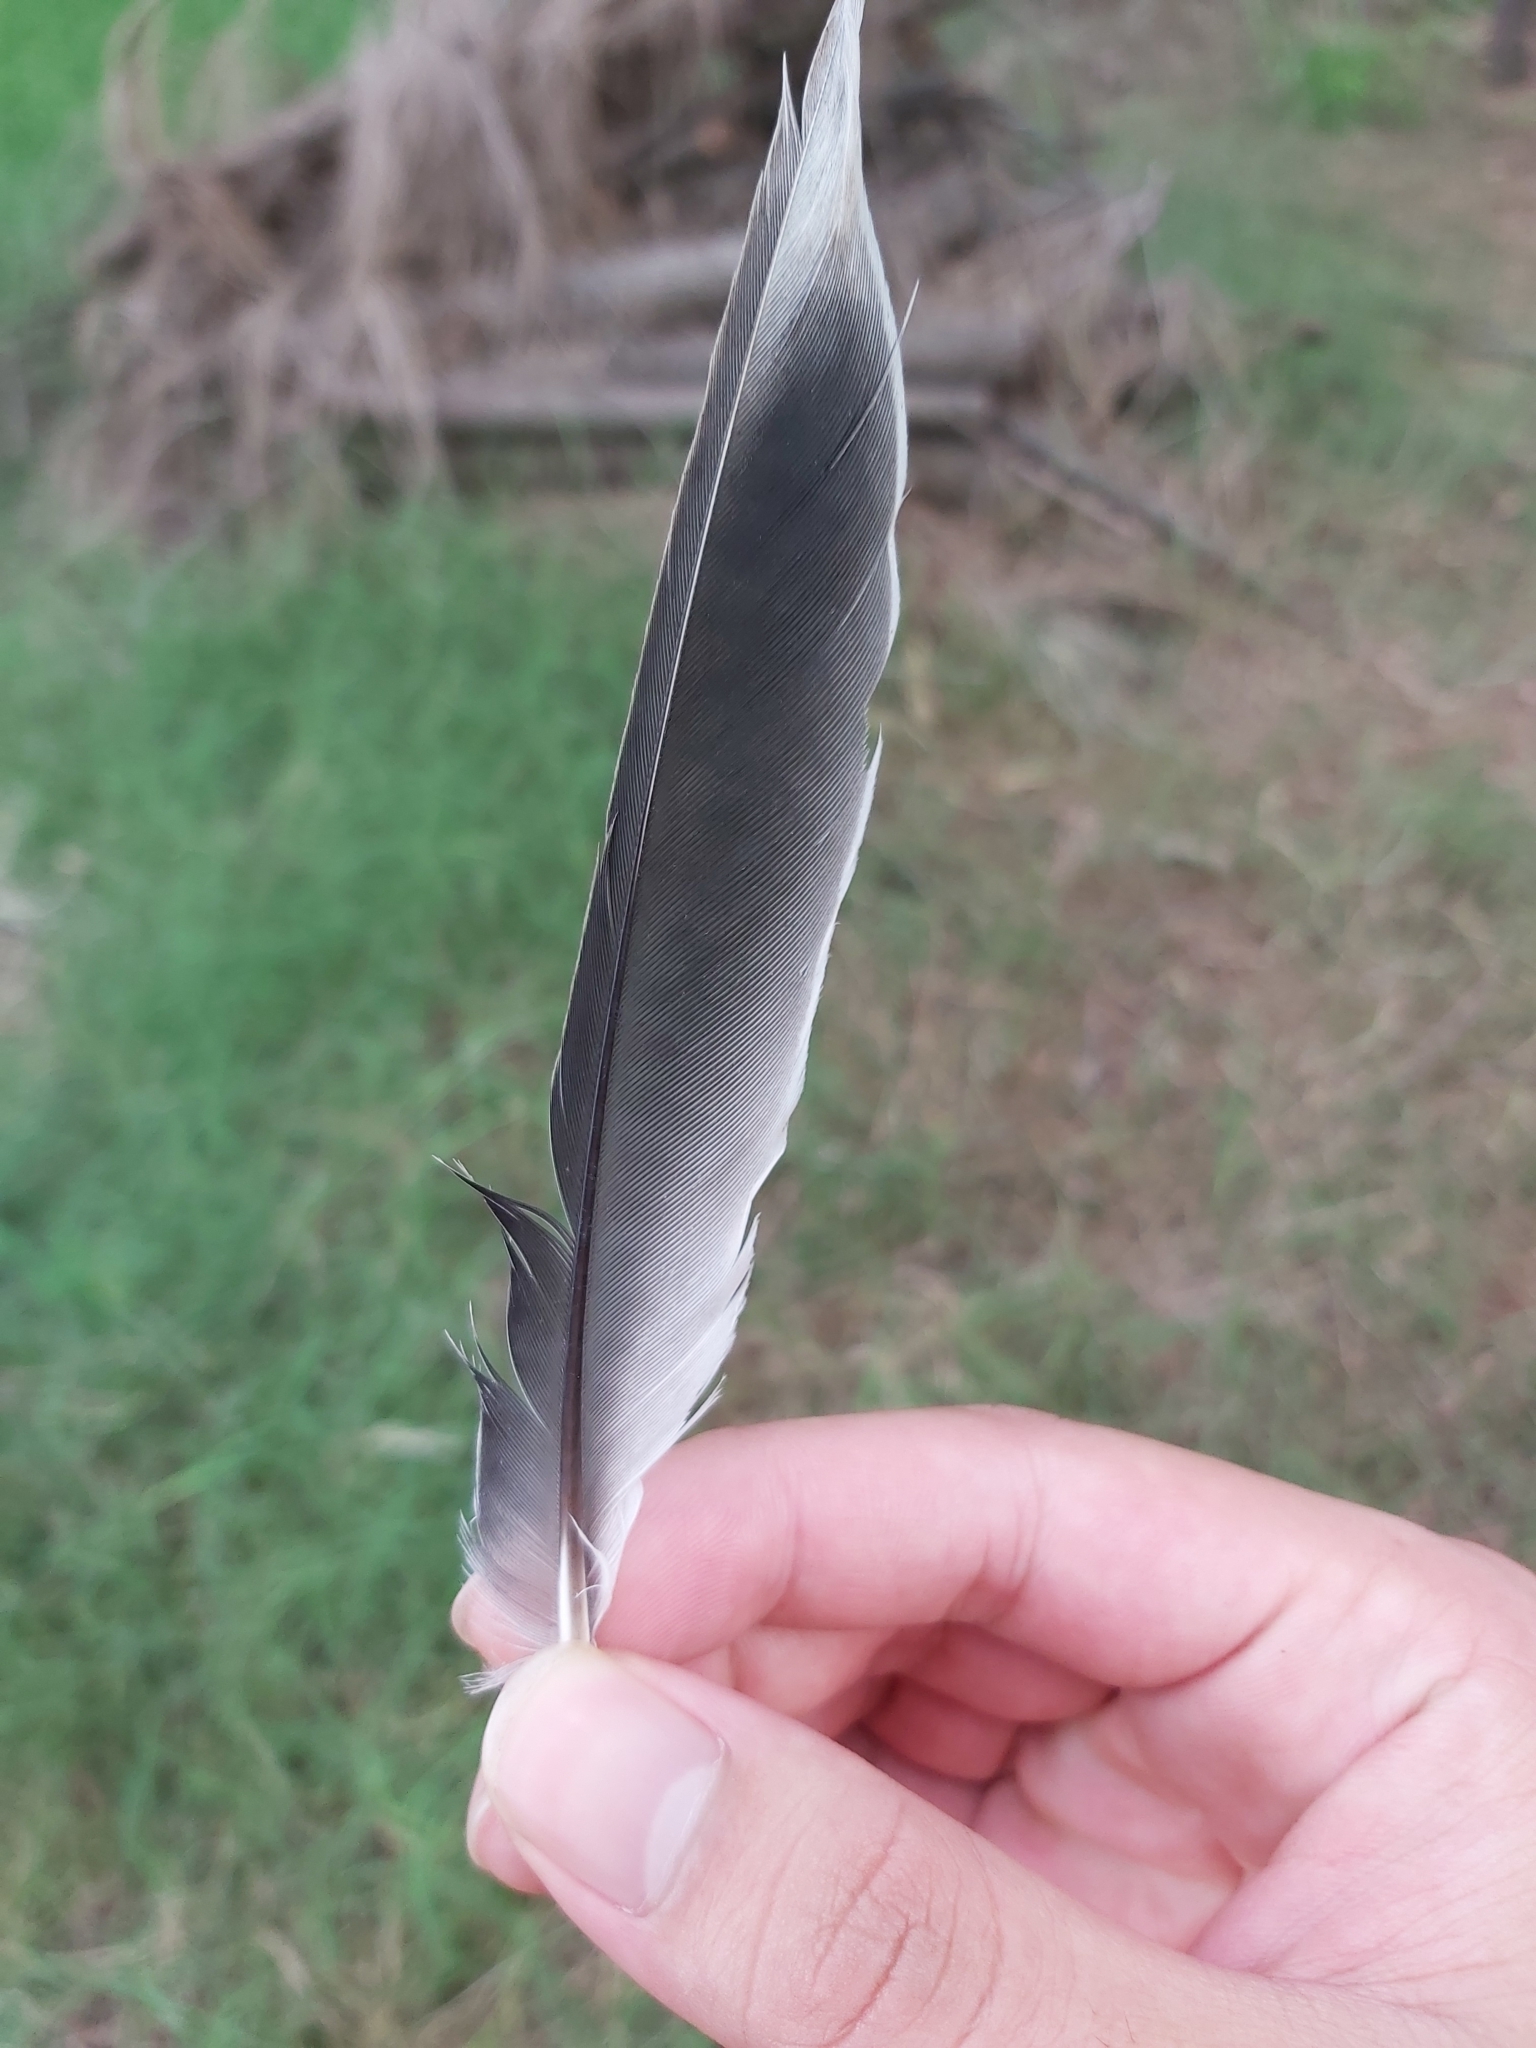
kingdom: Animalia
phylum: Chordata
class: Aves
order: Passeriformes
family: Meliphagidae
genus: Manorina
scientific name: Manorina melanocephala
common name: Noisy miner
